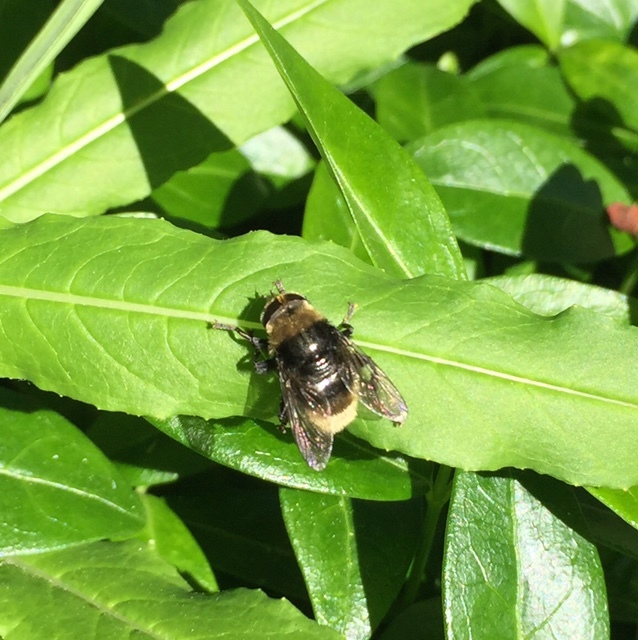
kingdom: Animalia
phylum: Arthropoda
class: Insecta
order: Diptera
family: Syrphidae
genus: Merodon
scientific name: Merodon equestris
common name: Greater bulb-fly
